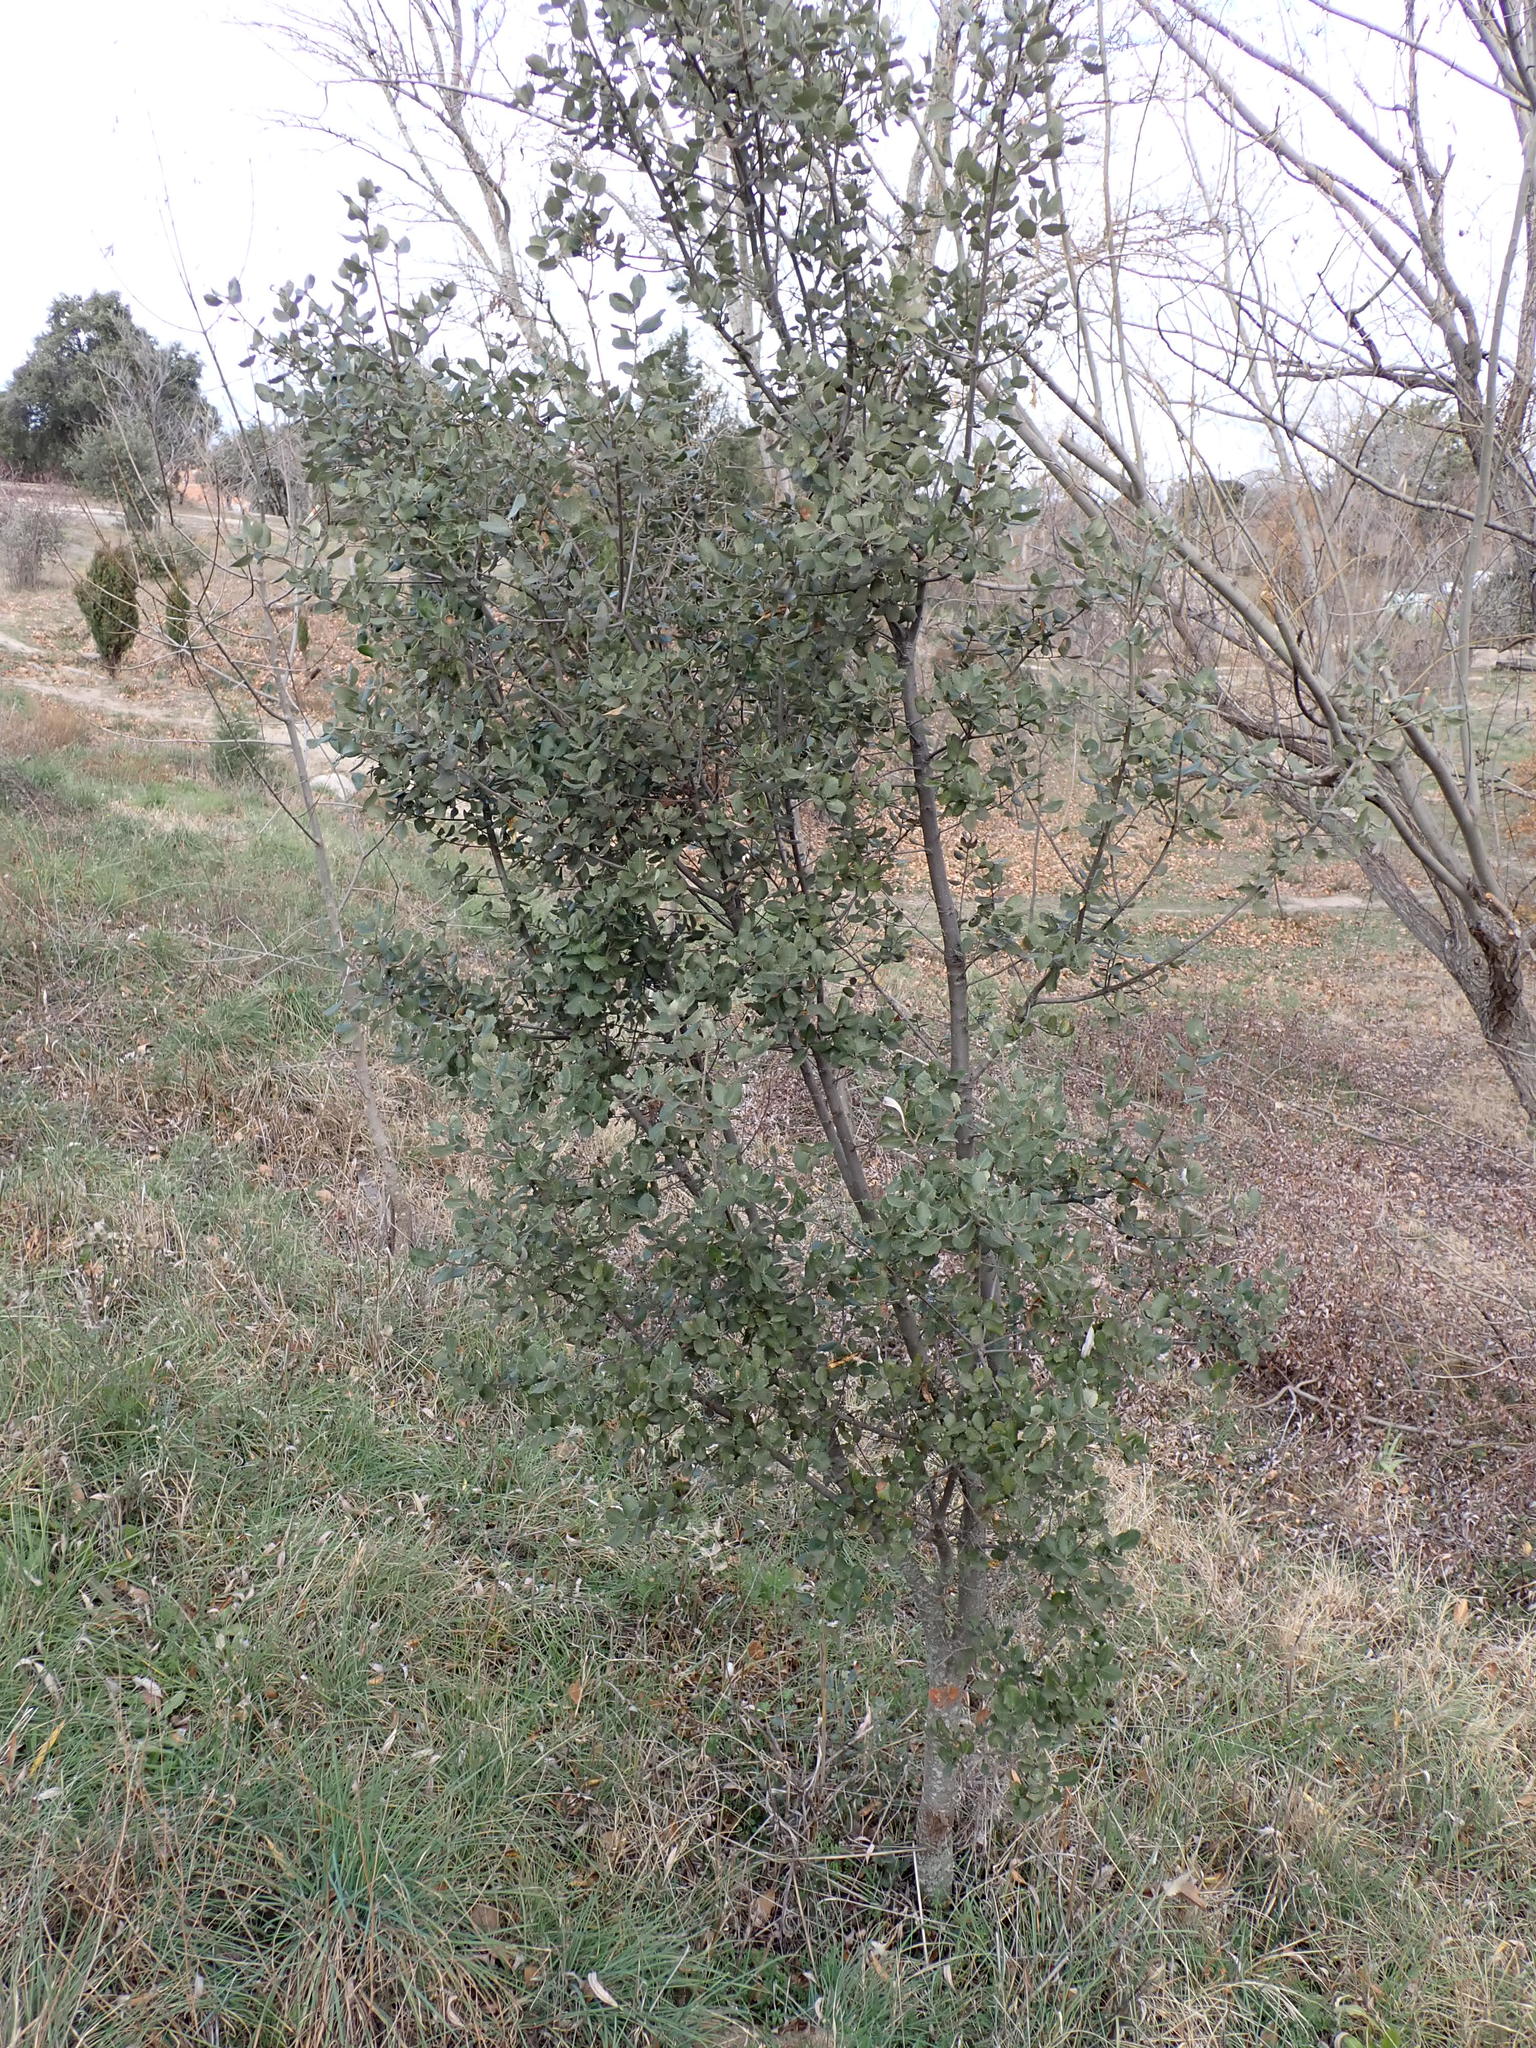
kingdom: Plantae
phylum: Tracheophyta
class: Magnoliopsida
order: Fagales
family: Fagaceae
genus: Quercus
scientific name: Quercus rotundifolia
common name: Holm oak
